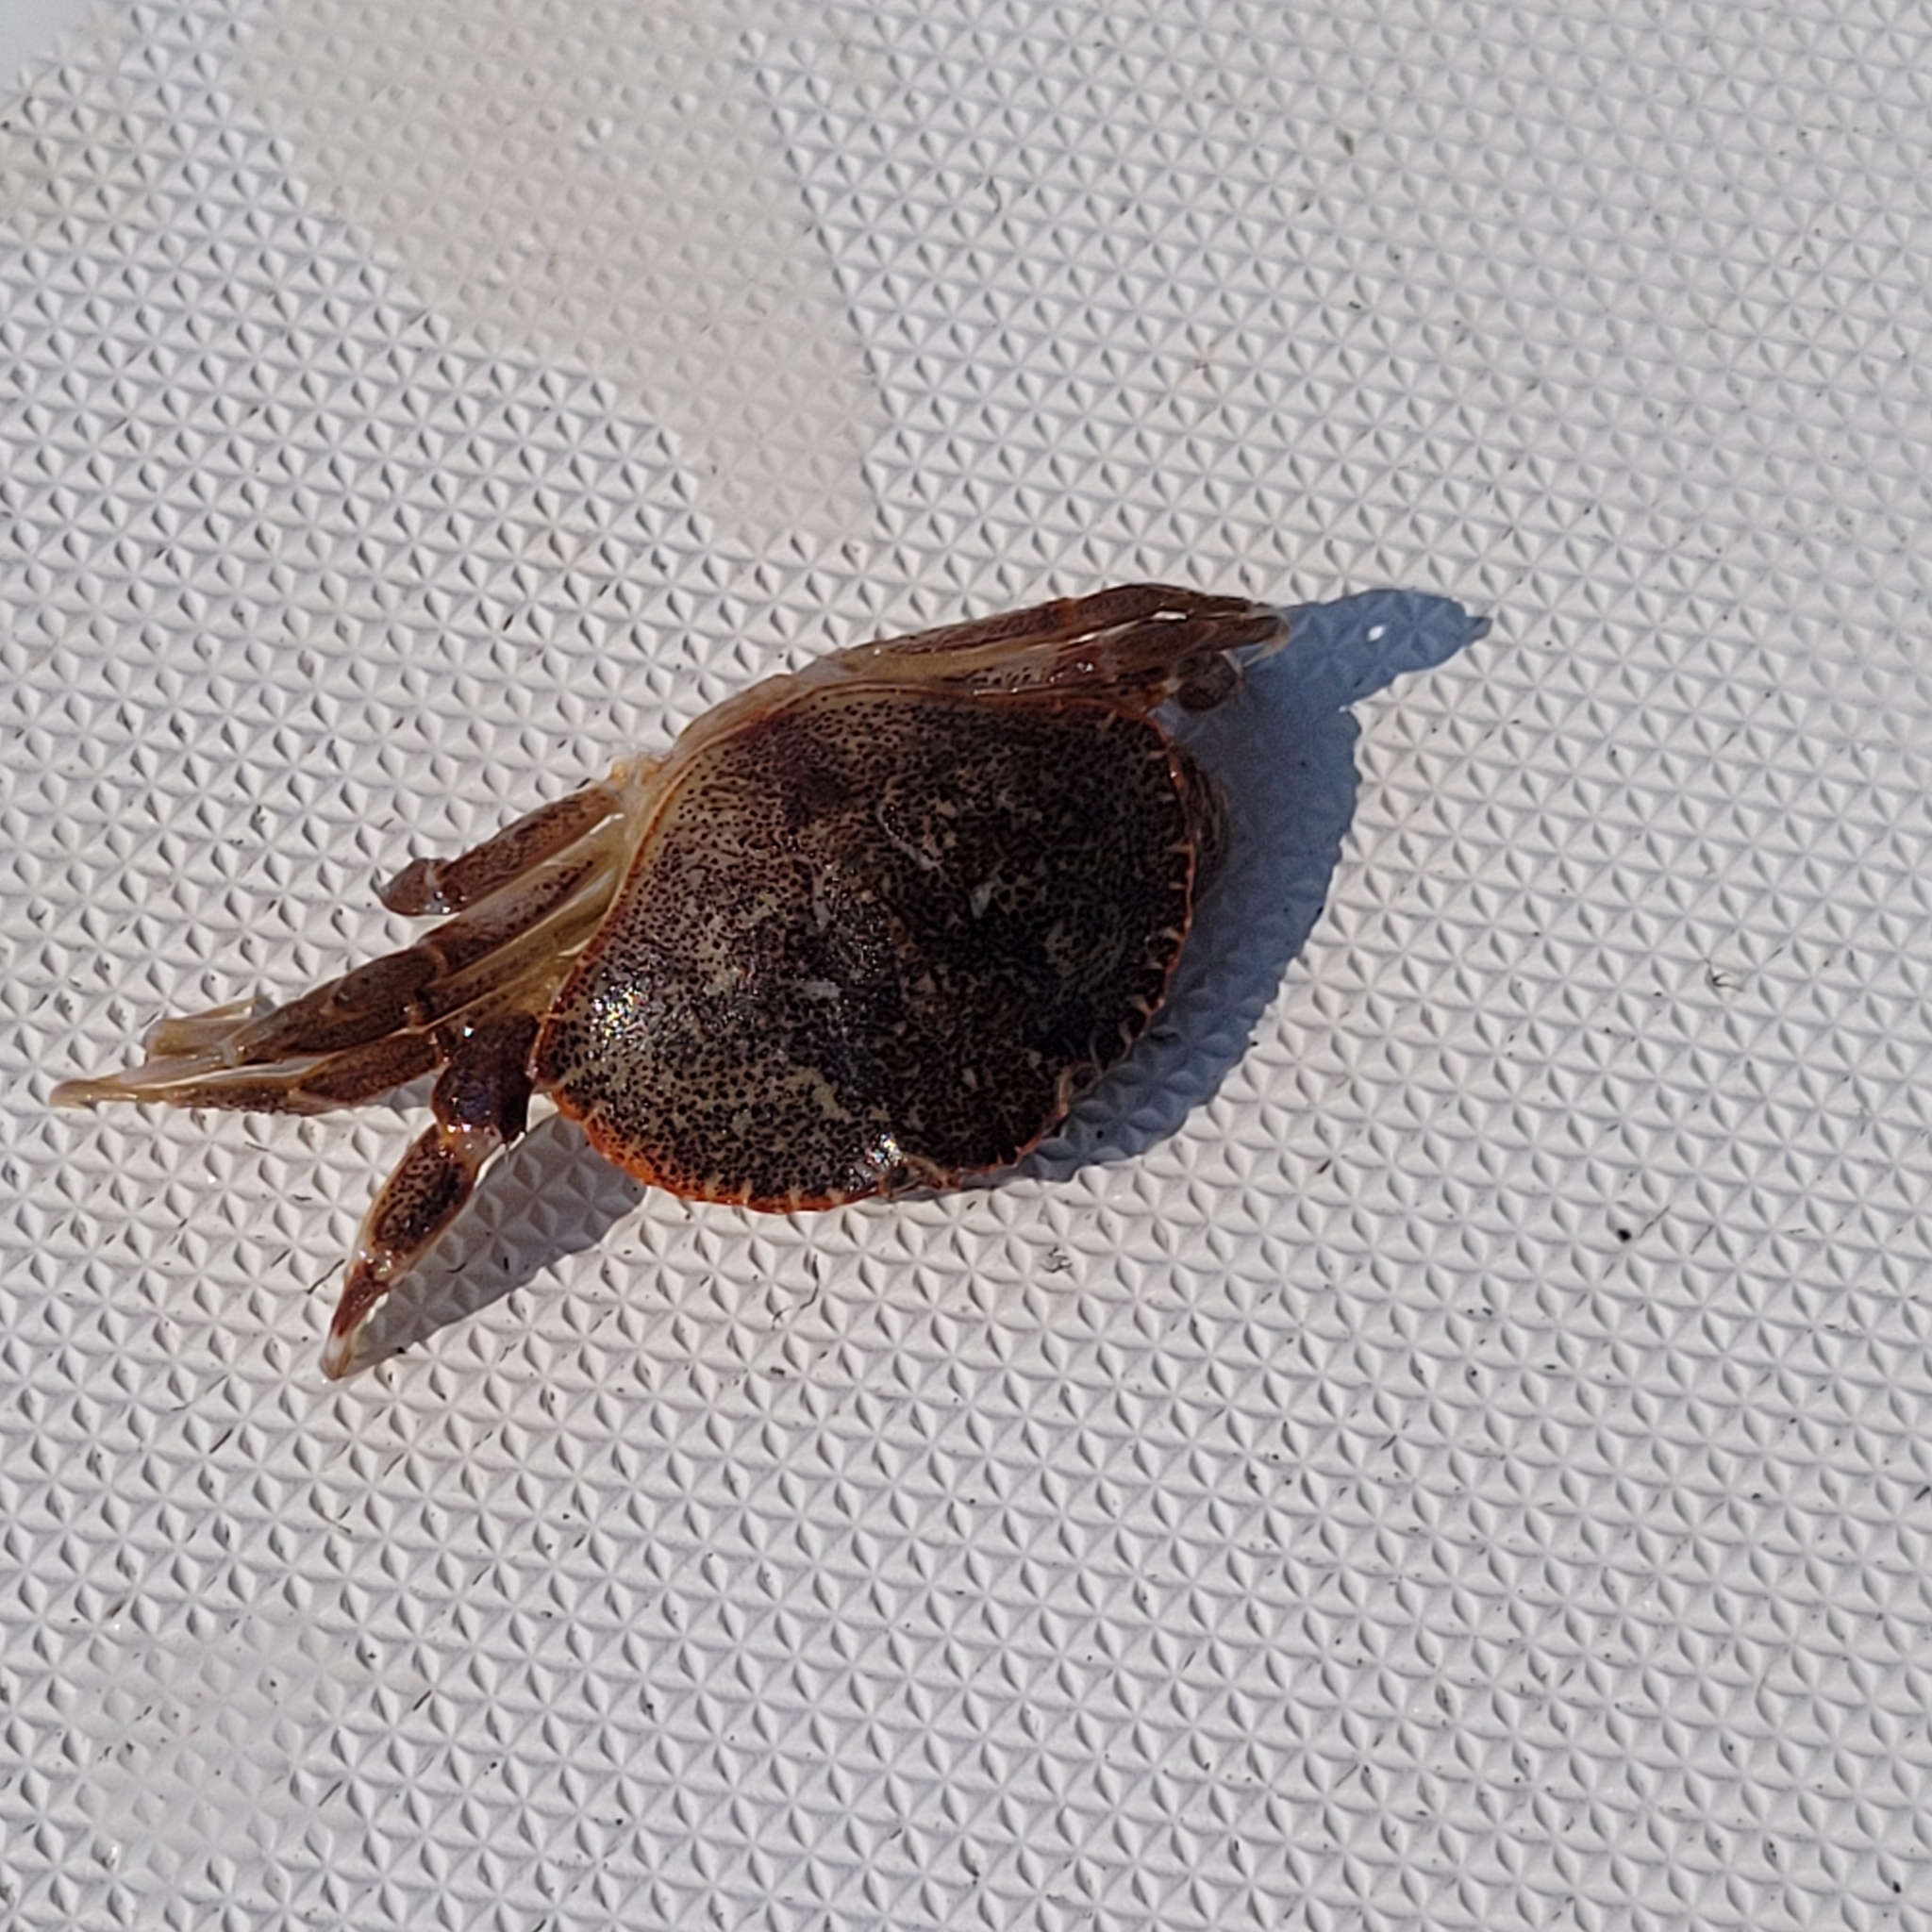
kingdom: Animalia
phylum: Arthropoda
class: Malacostraca
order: Decapoda
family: Cancridae
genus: Cancer
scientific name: Cancer irroratus
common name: Atlantic rock crab
